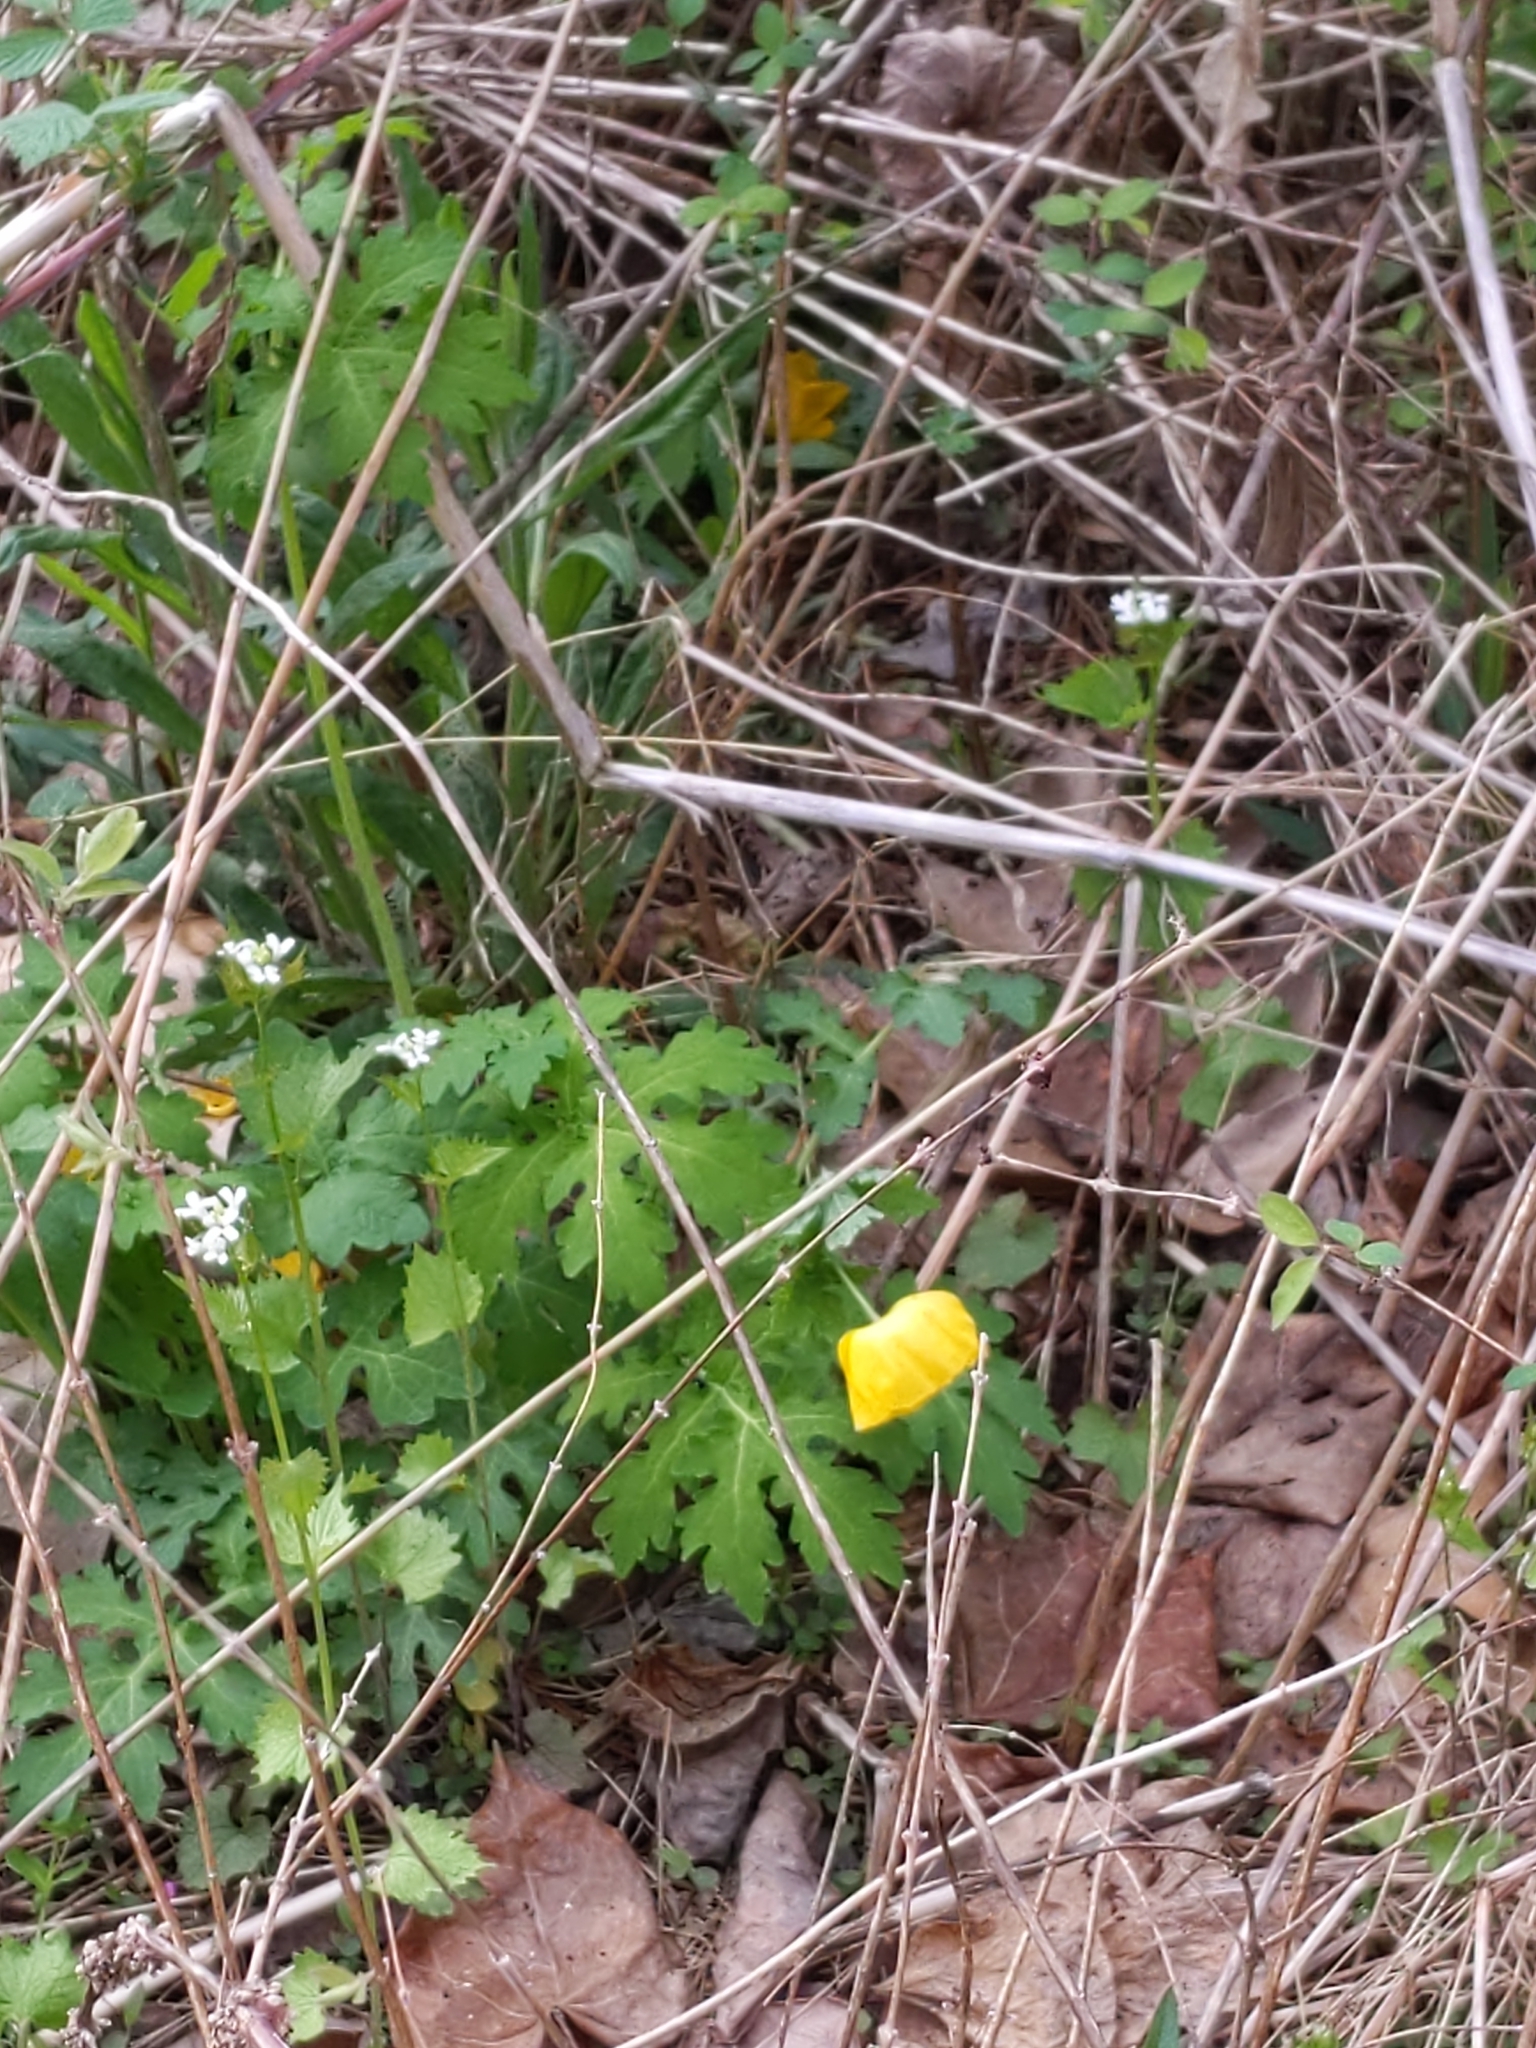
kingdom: Plantae
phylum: Tracheophyta
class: Magnoliopsida
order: Ranunculales
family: Papaveraceae
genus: Stylophorum
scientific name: Stylophorum diphyllum
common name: Celandine poppy
